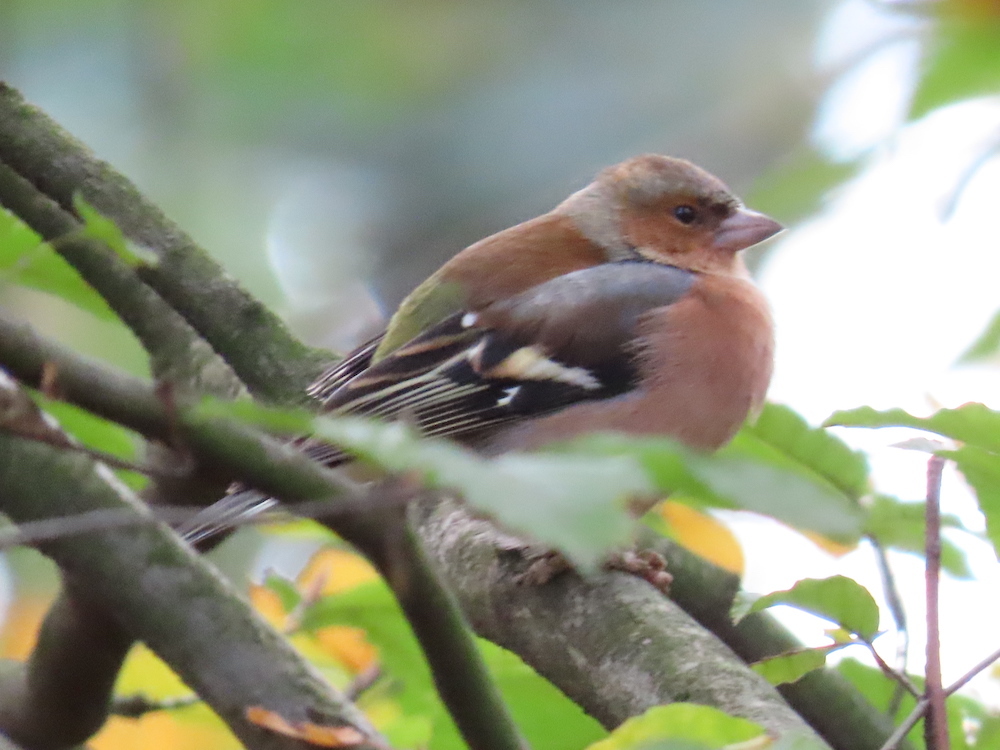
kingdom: Animalia
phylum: Chordata
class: Aves
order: Passeriformes
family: Fringillidae
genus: Fringilla
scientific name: Fringilla coelebs
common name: Common chaffinch
